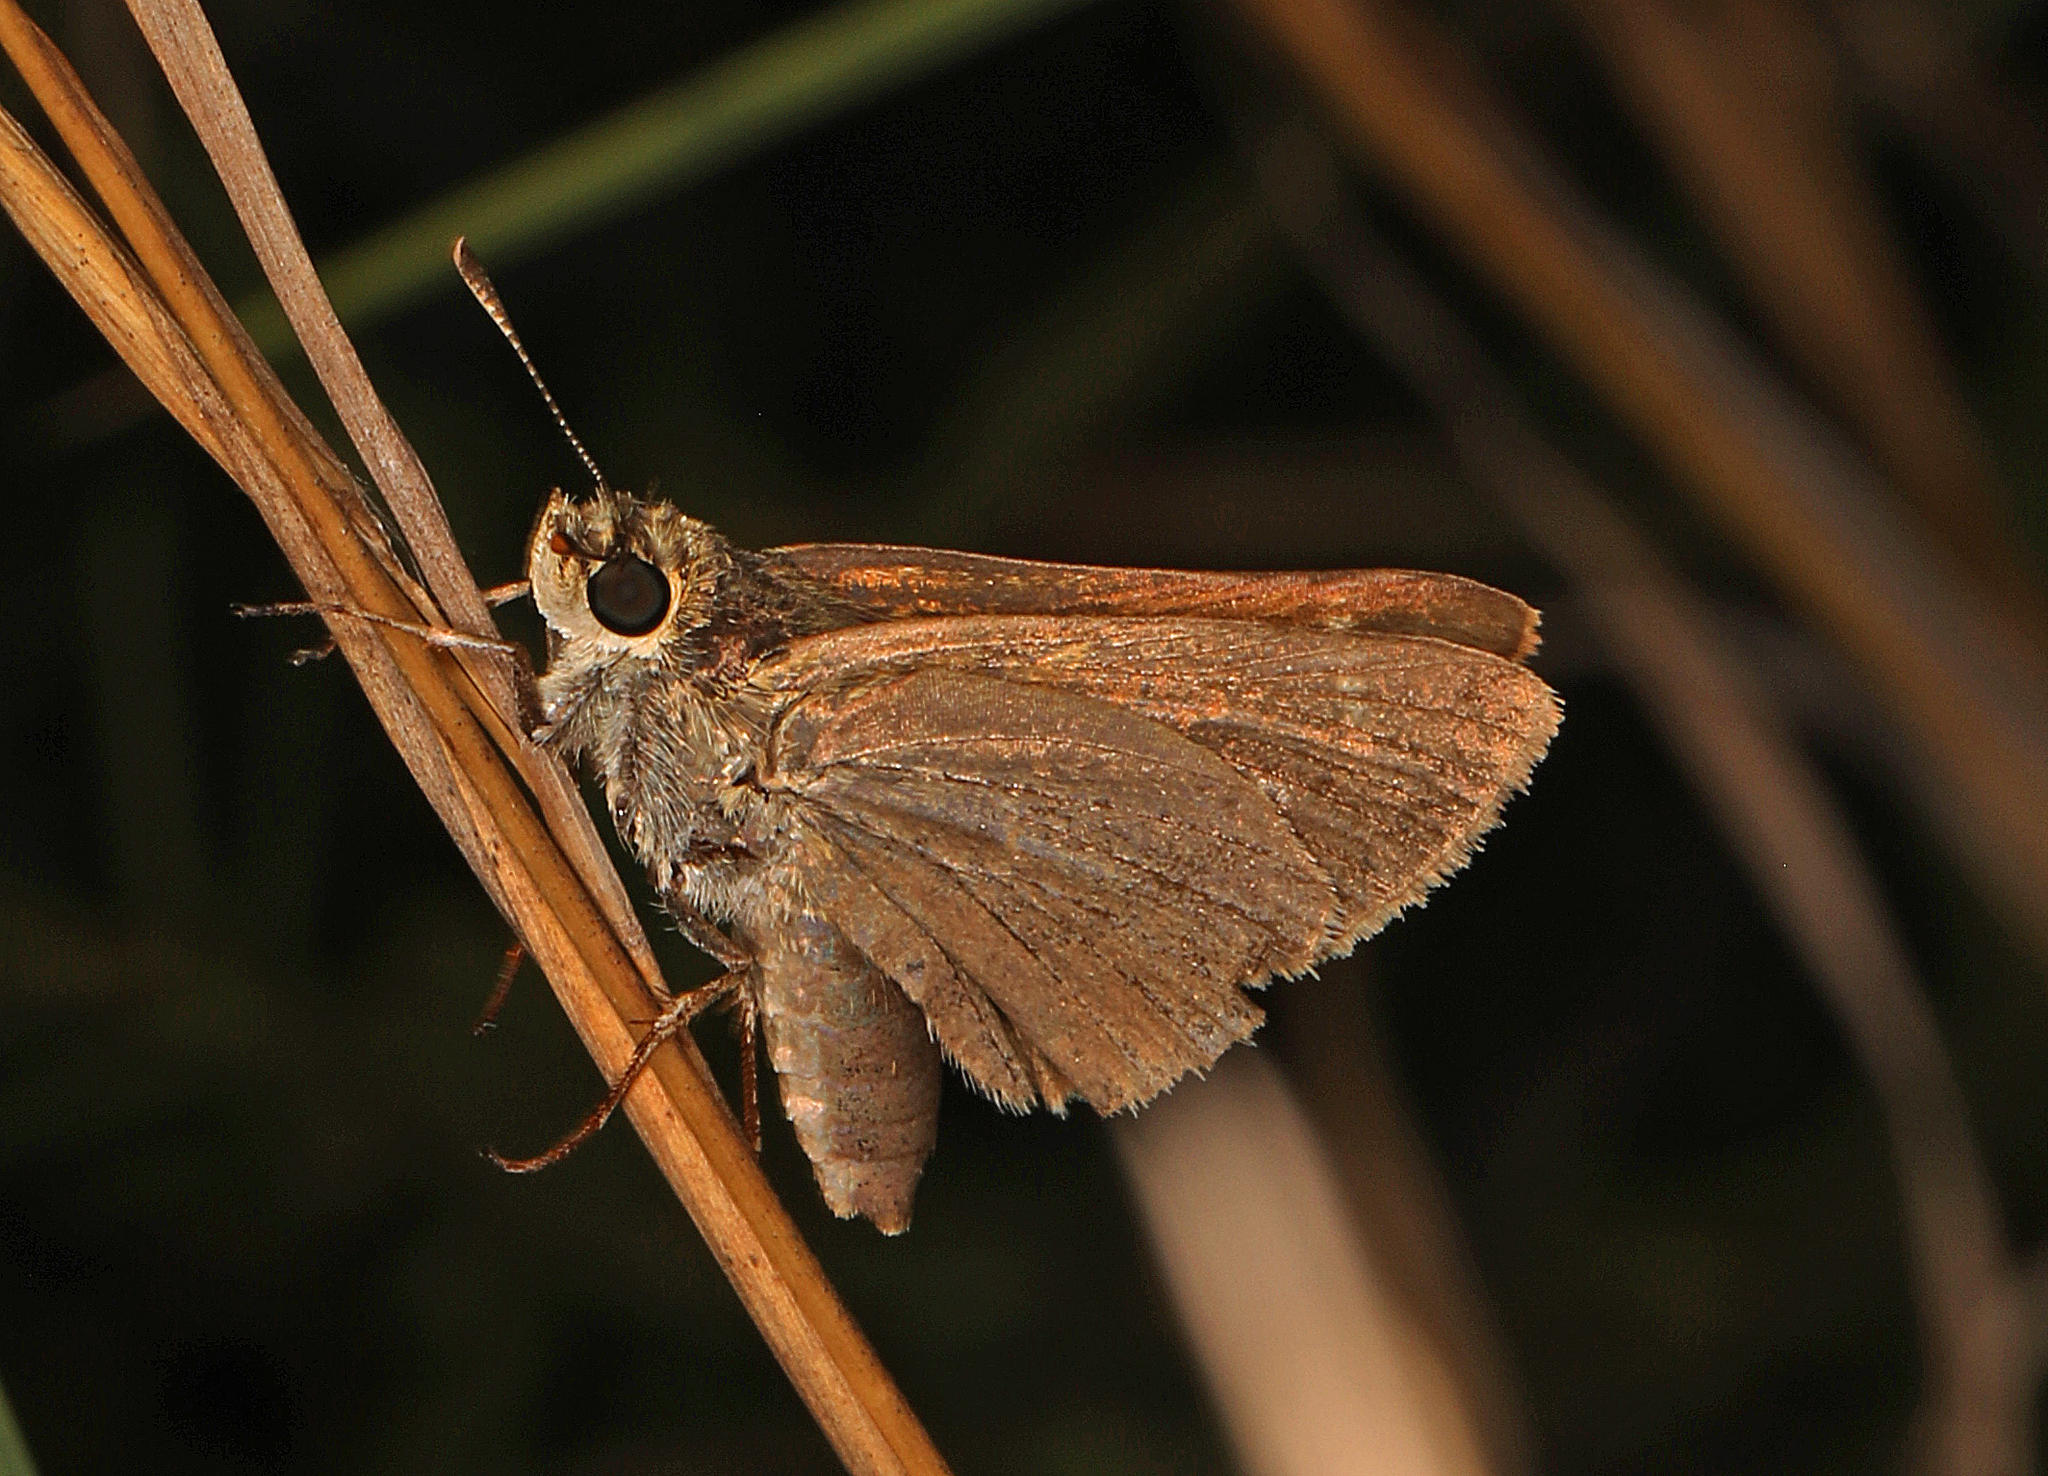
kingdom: Animalia
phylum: Arthropoda
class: Insecta
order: Lepidoptera
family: Hesperiidae
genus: Nastra
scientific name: Nastra lherminier
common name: Swarthy skipper
